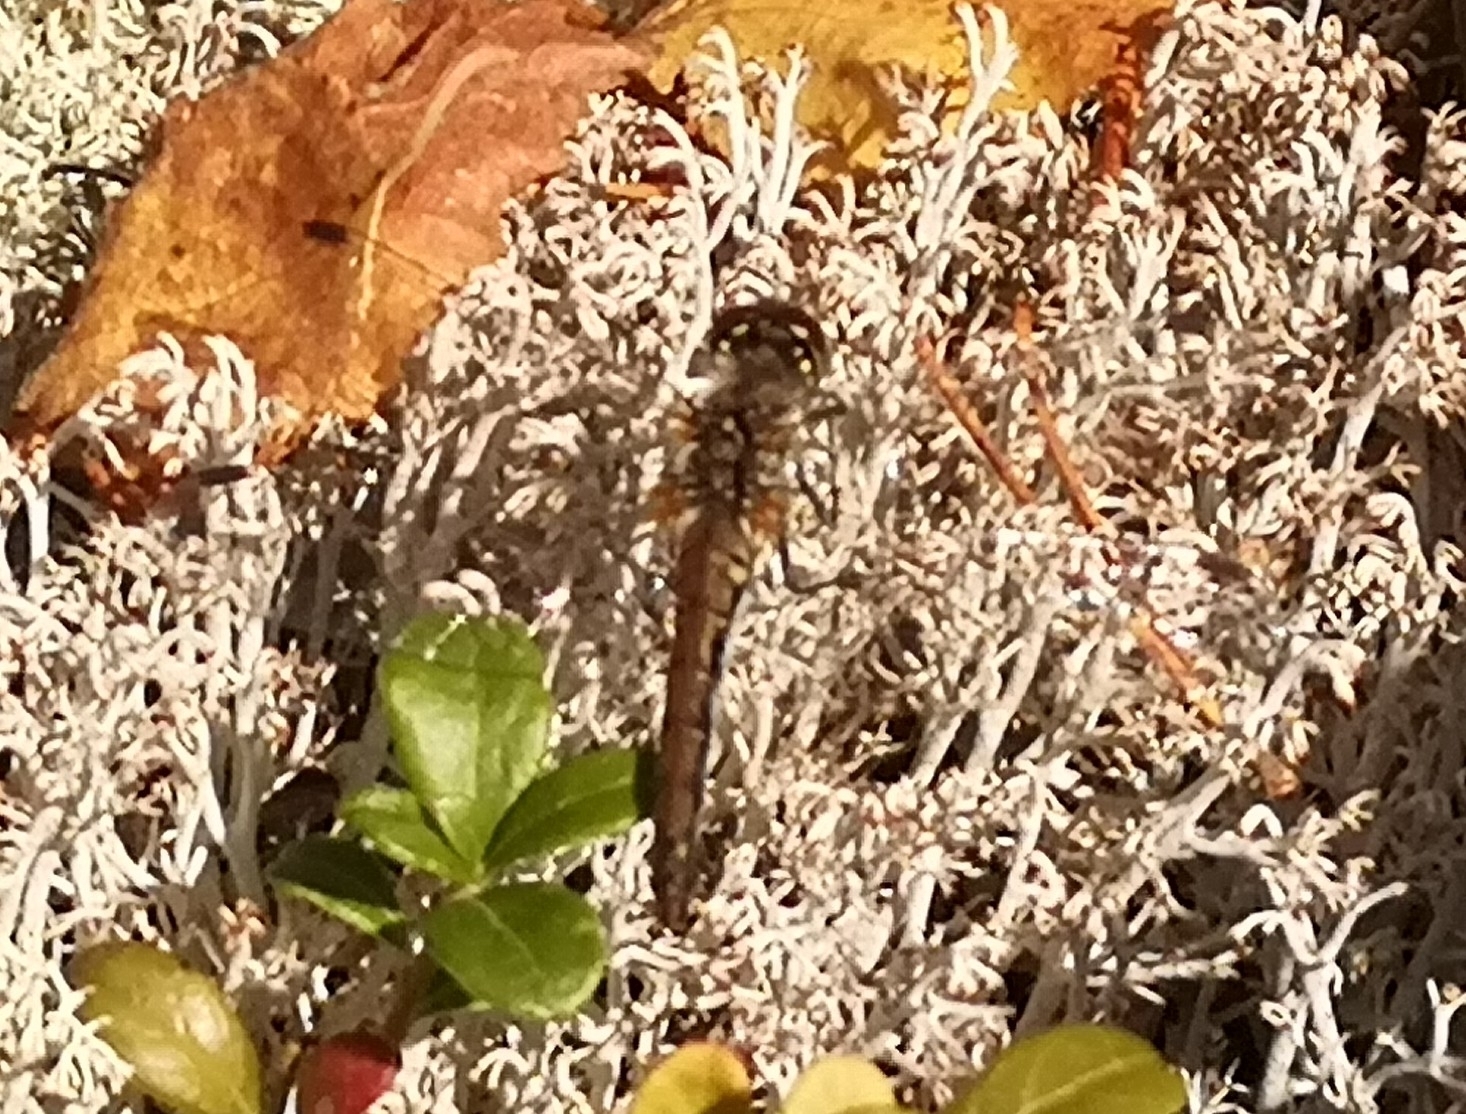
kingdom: Animalia
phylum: Arthropoda
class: Insecta
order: Odonata
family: Libellulidae
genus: Sympetrum
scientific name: Sympetrum danae
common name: Black darter
